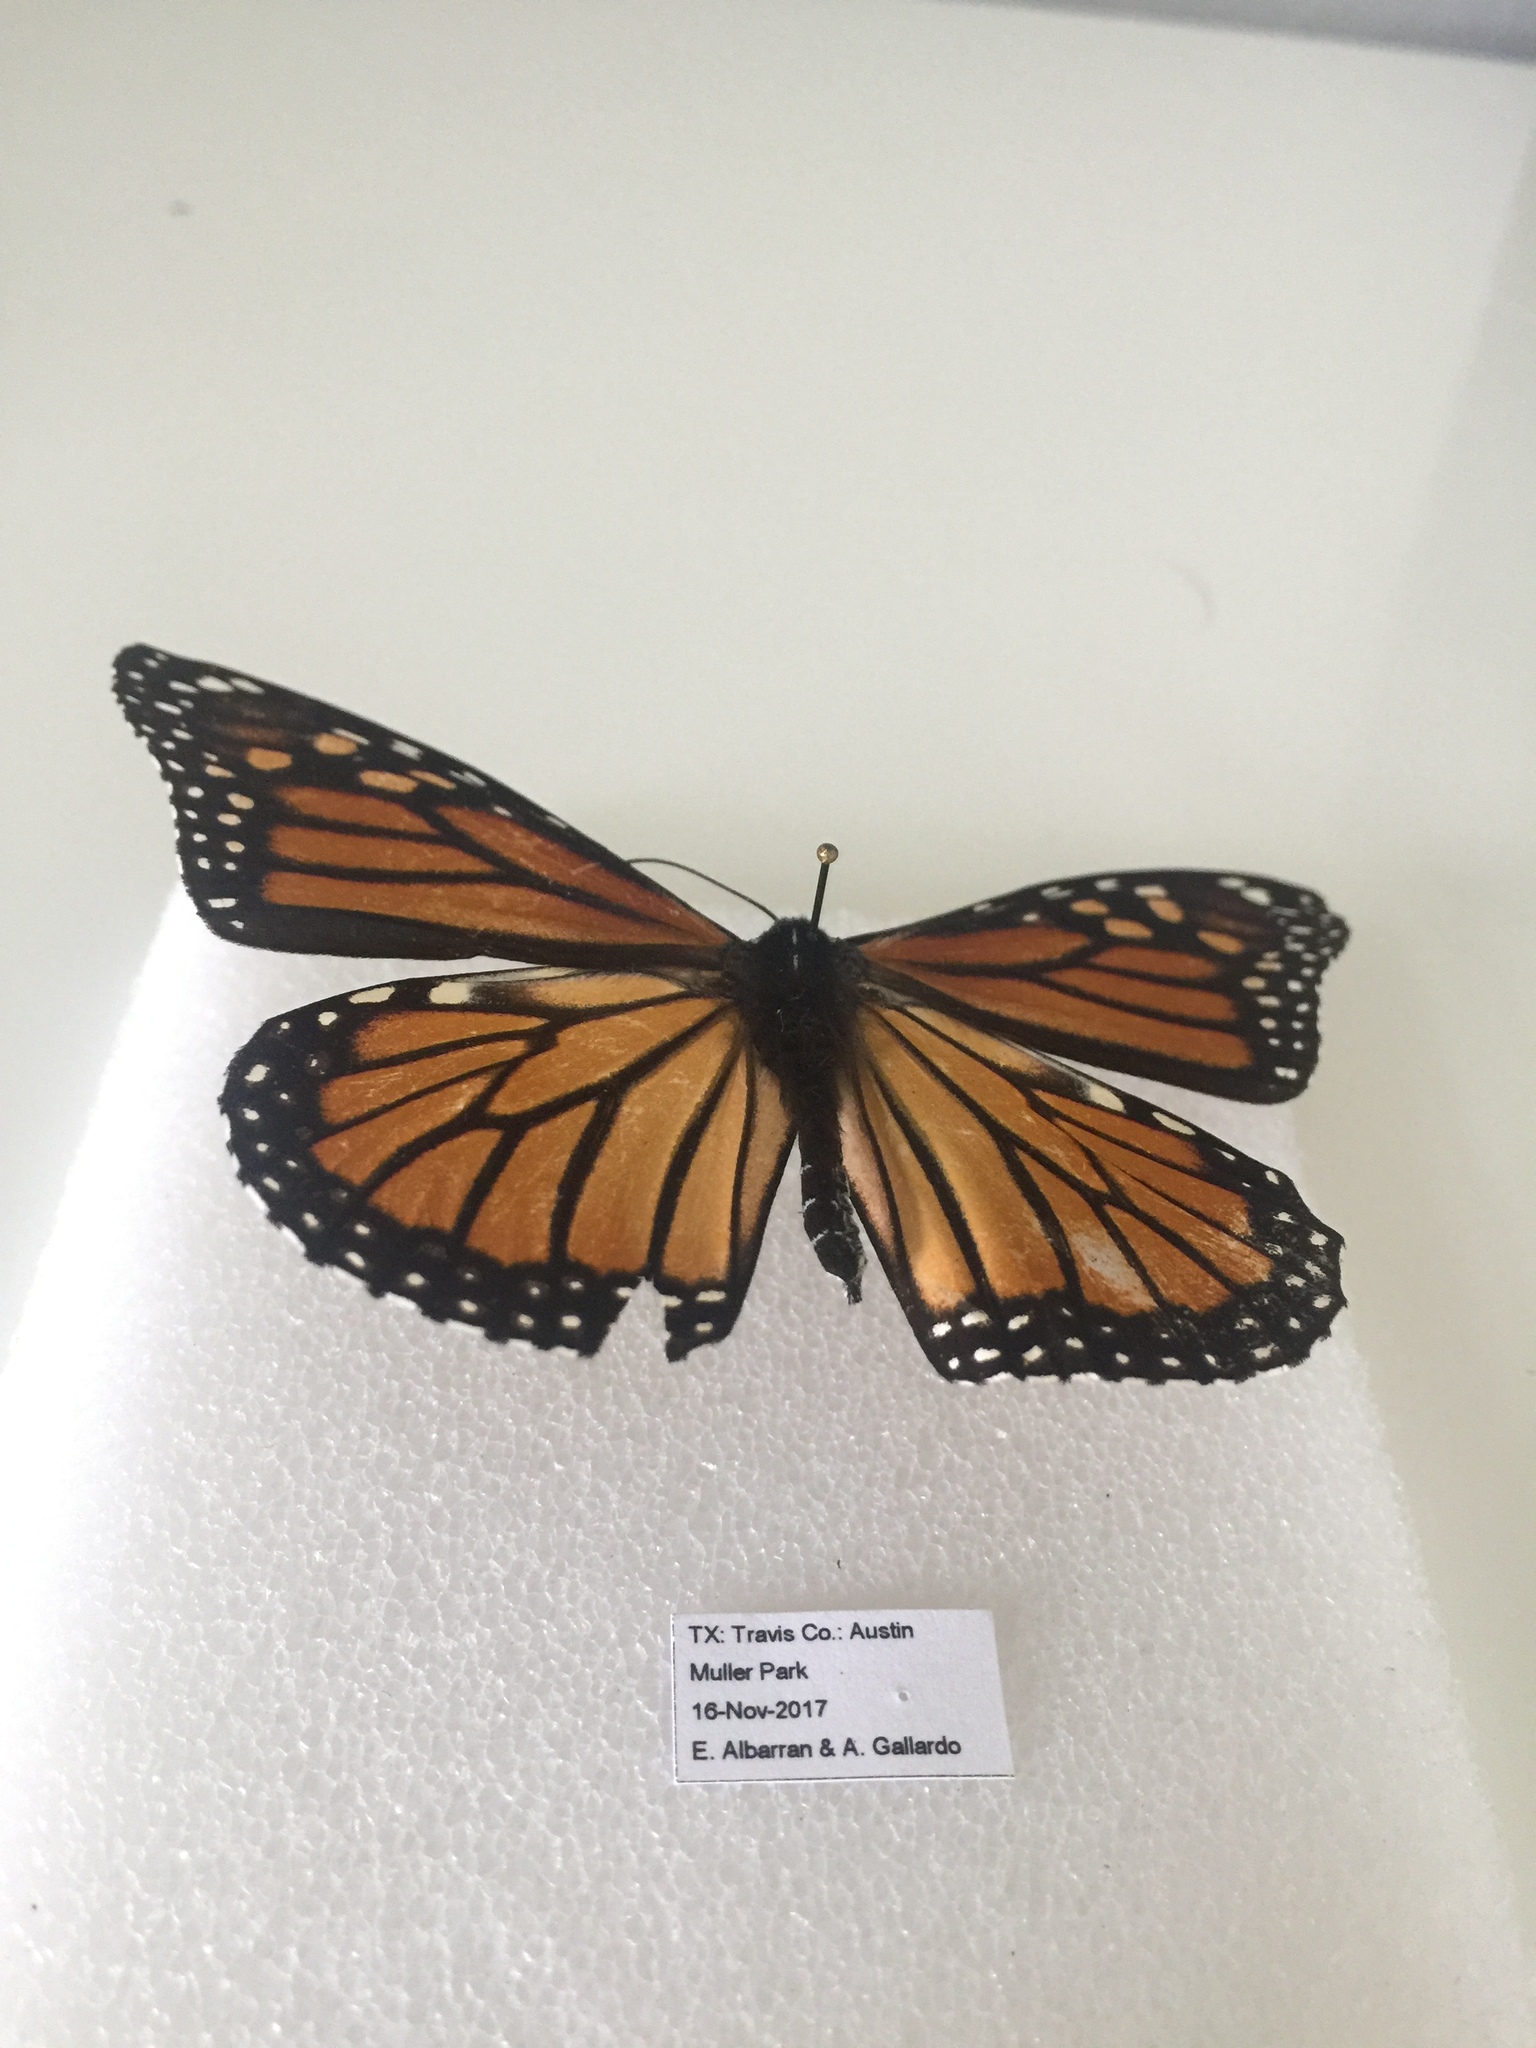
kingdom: Animalia
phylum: Arthropoda
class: Insecta
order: Lepidoptera
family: Nymphalidae
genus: Danaus
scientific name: Danaus plexippus
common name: Monarch
